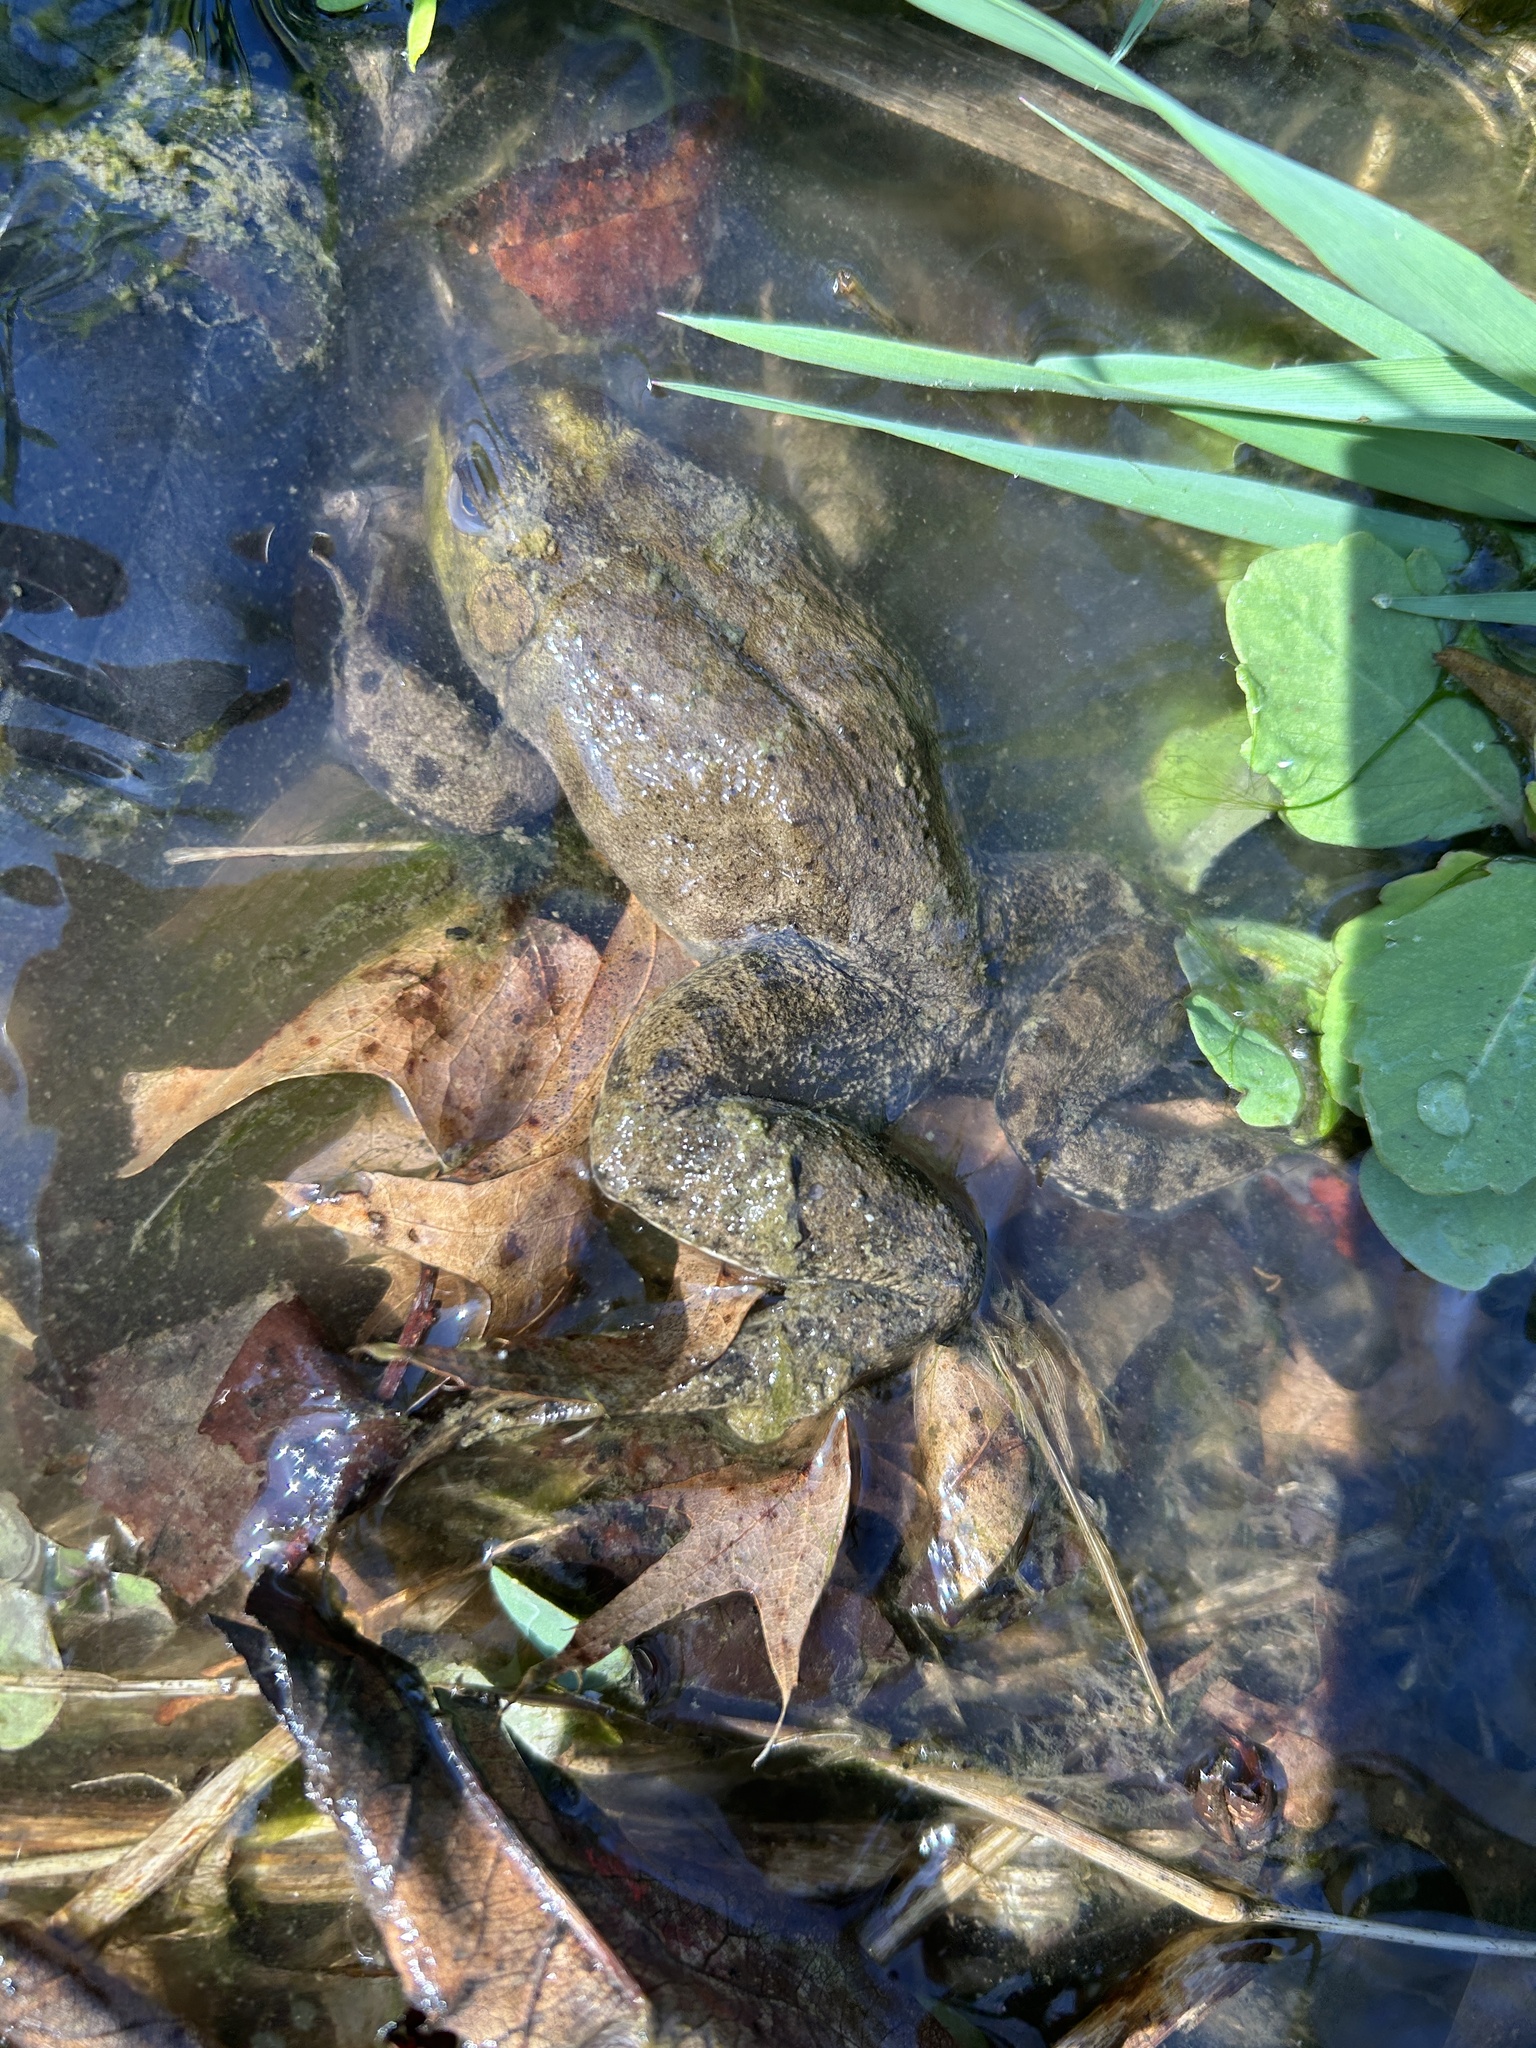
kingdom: Animalia
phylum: Chordata
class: Amphibia
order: Anura
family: Ranidae
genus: Lithobates
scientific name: Lithobates catesbeianus
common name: American bullfrog
